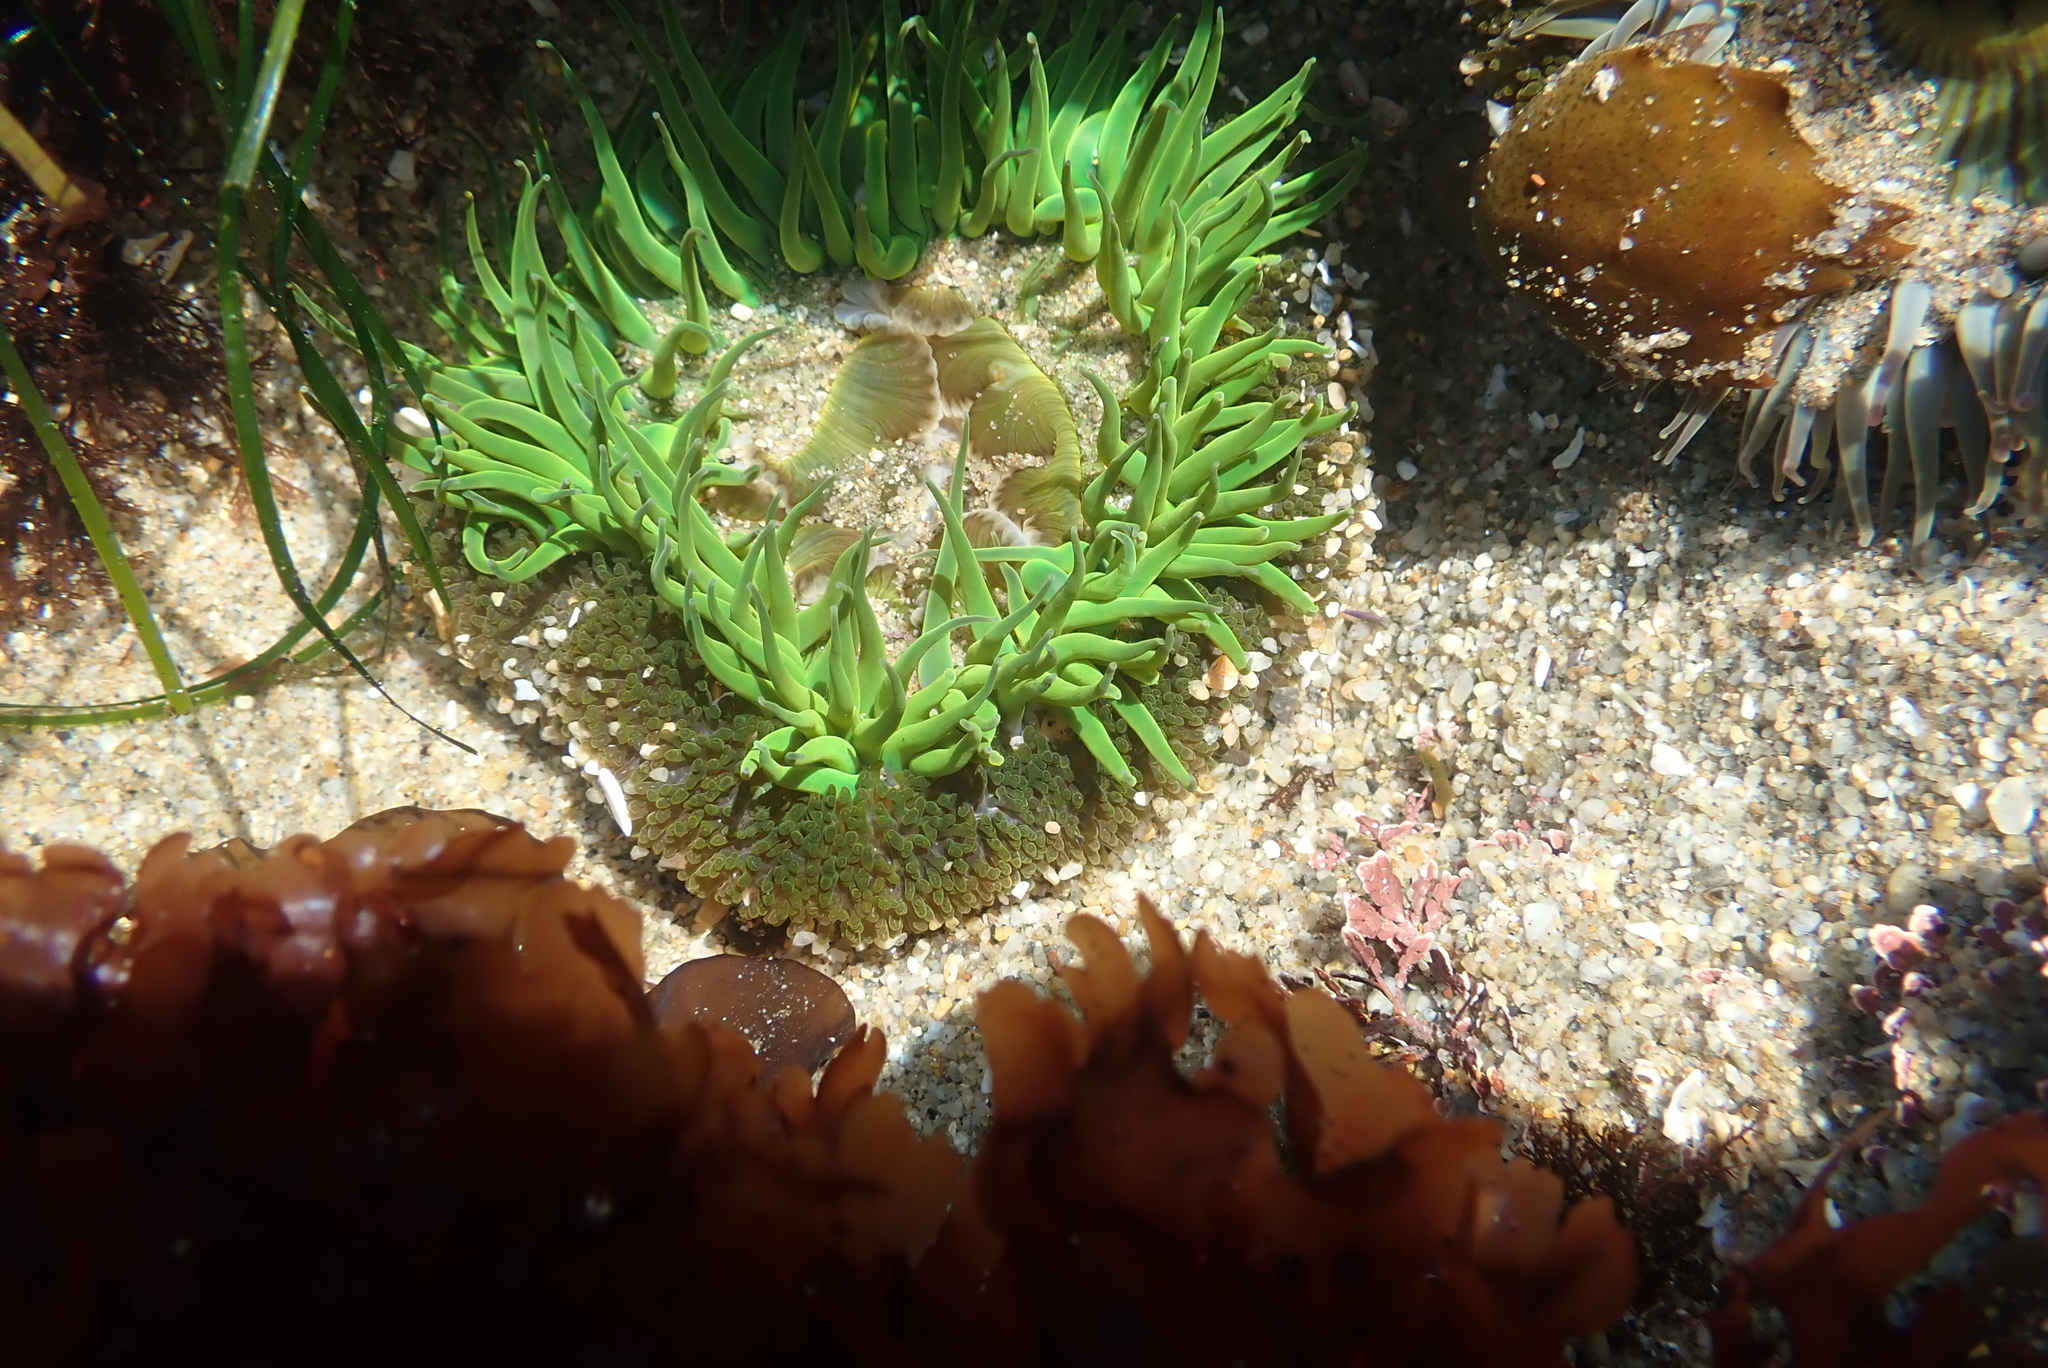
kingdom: Animalia
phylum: Cnidaria
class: Anthozoa
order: Actiniaria
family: Actiniidae
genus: Anthopleura
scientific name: Anthopleura sola
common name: Sun anemone
